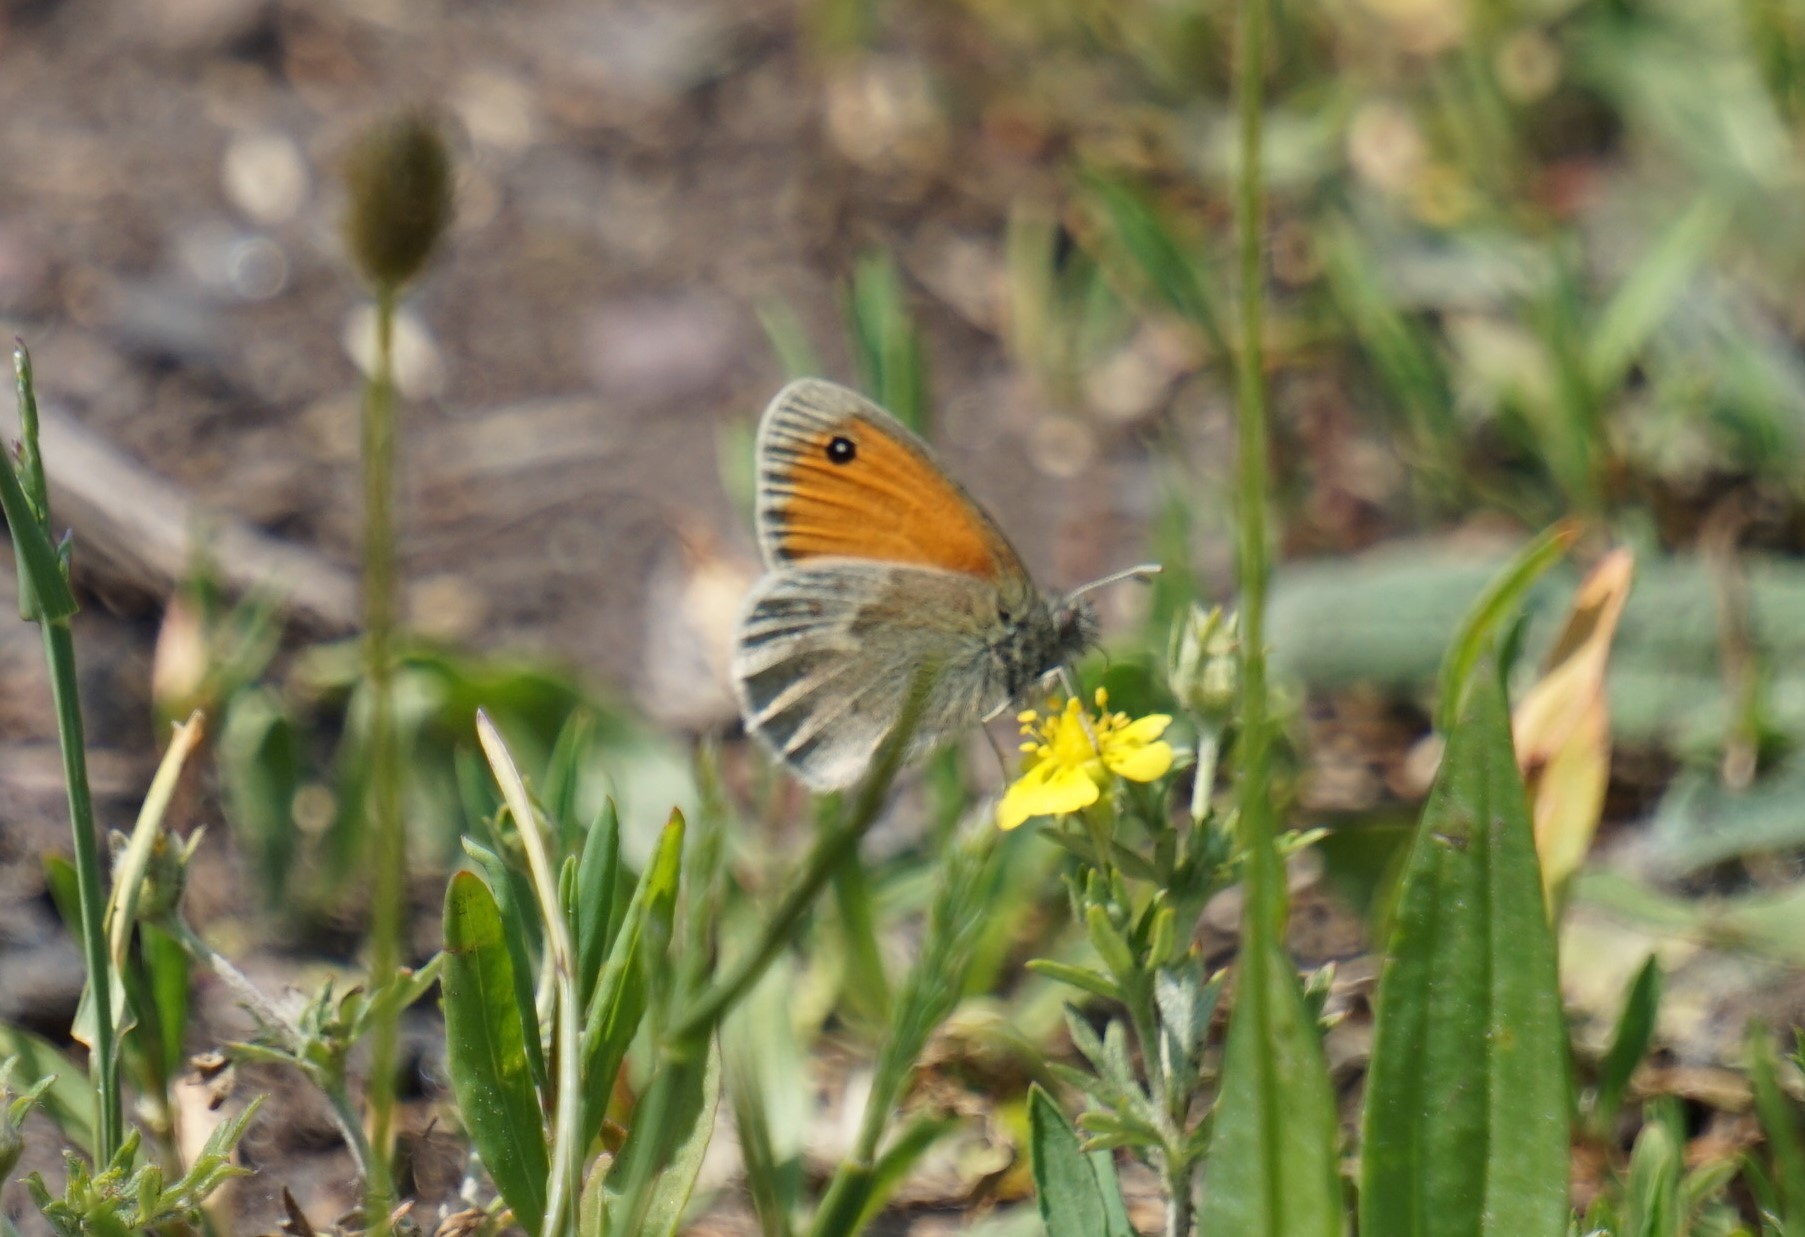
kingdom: Animalia
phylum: Arthropoda
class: Insecta
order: Lepidoptera
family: Nymphalidae
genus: Coenonympha
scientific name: Coenonympha pamphilus
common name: Small heath
